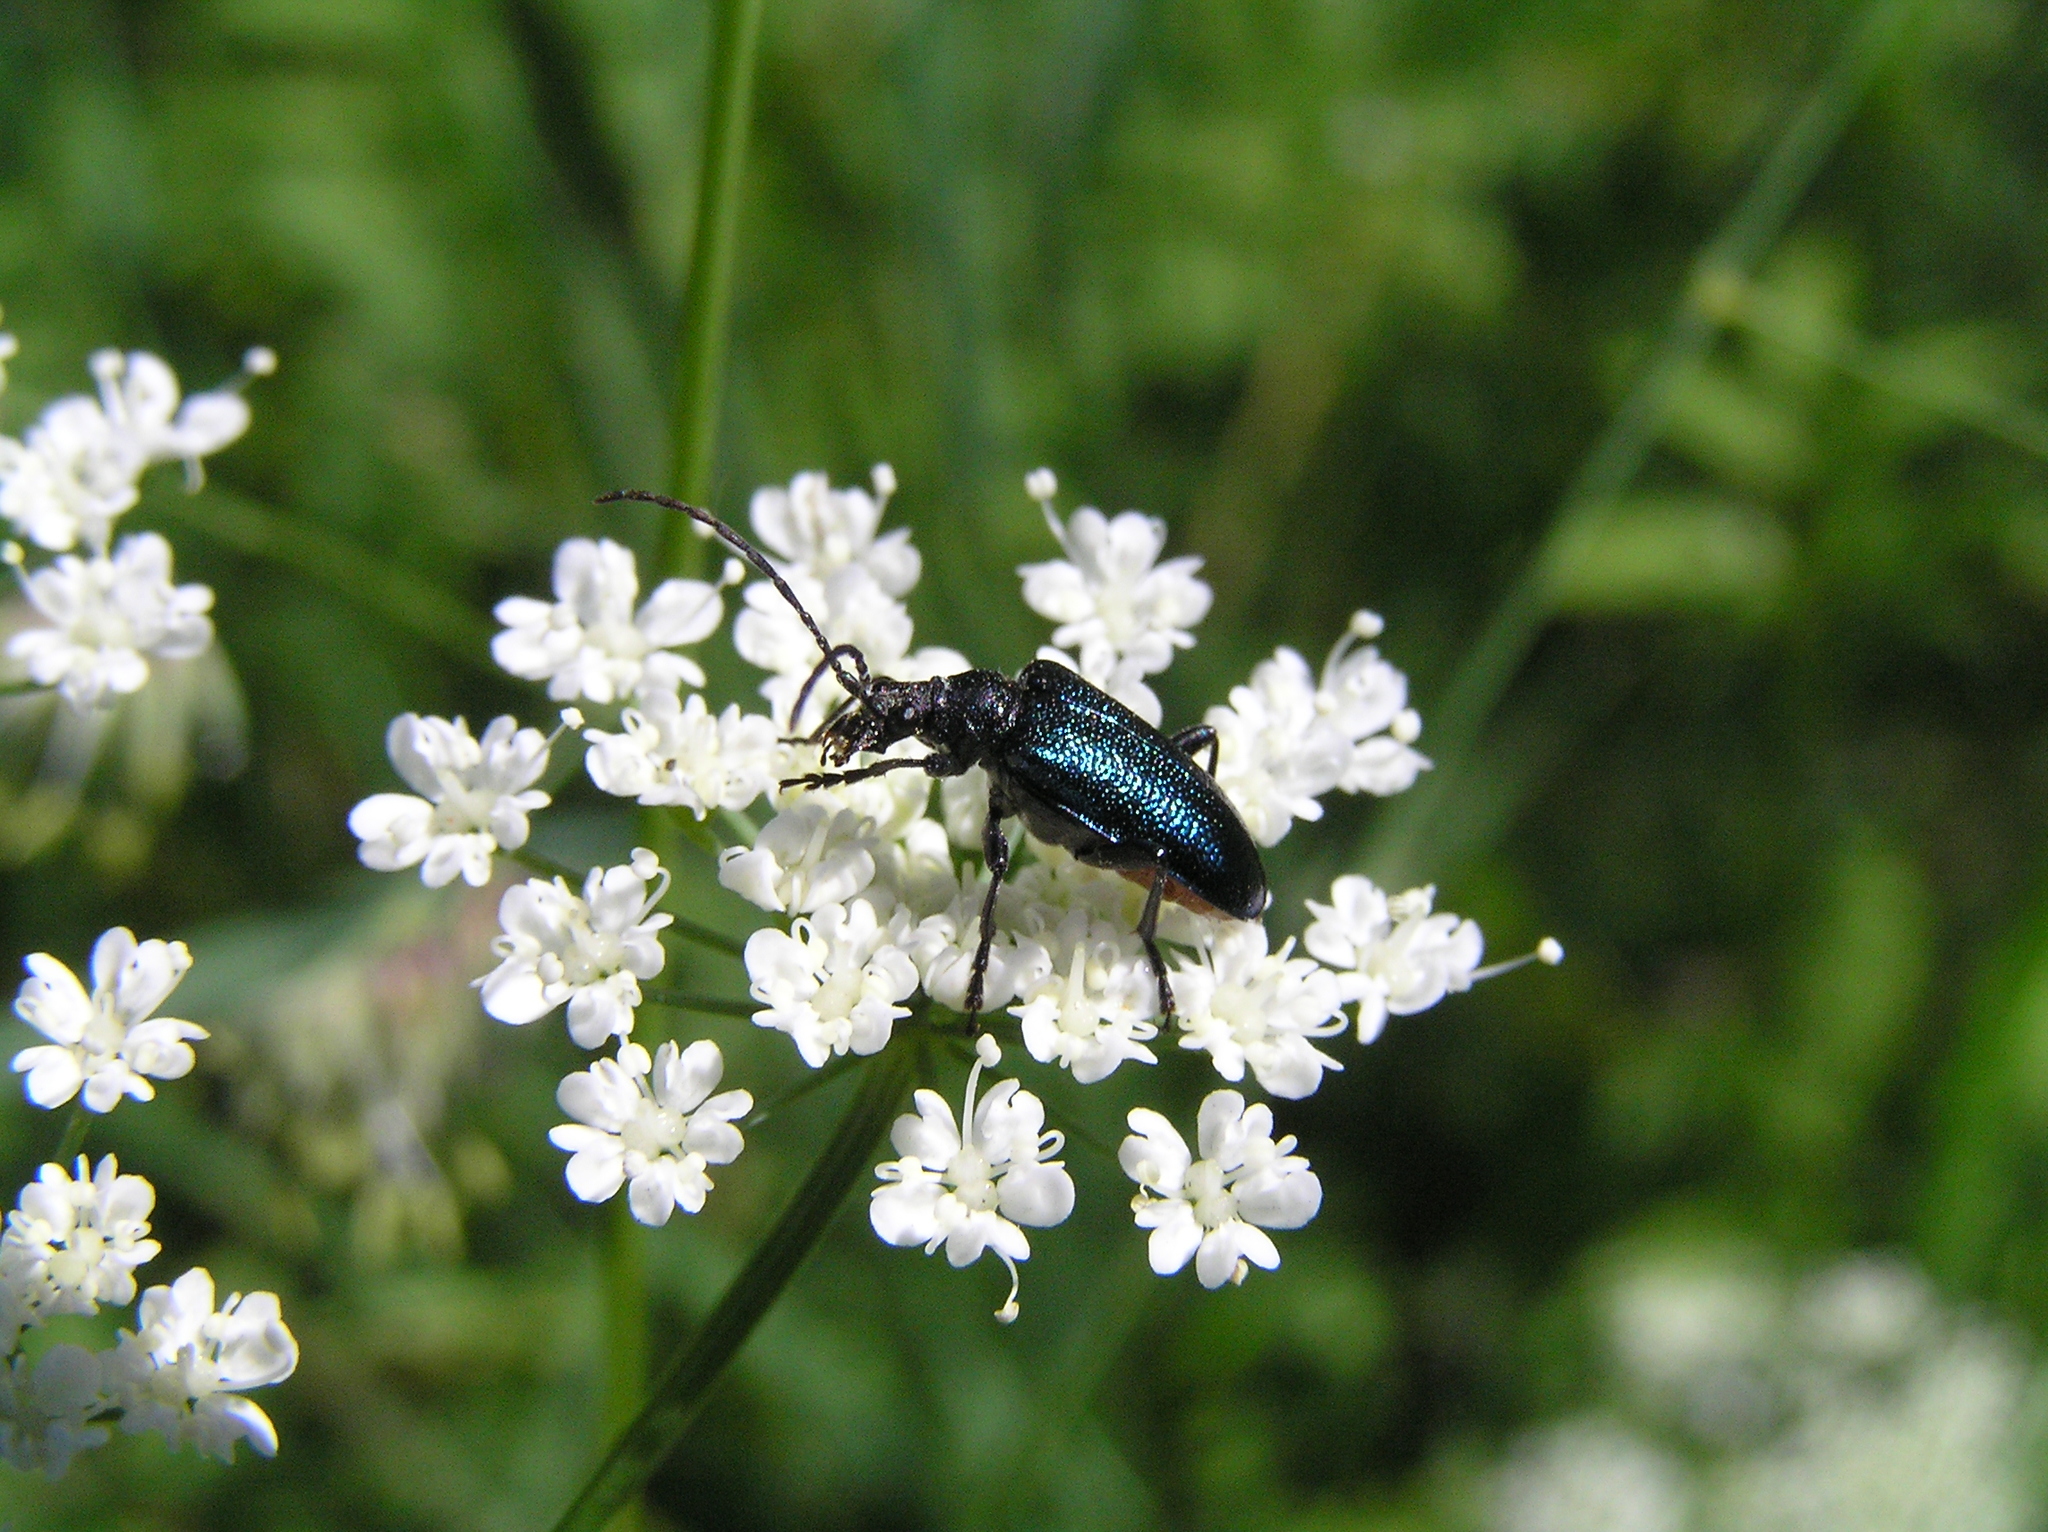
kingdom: Animalia
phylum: Arthropoda
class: Insecta
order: Coleoptera
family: Cerambycidae
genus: Gaurotes
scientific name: Gaurotes virginea
